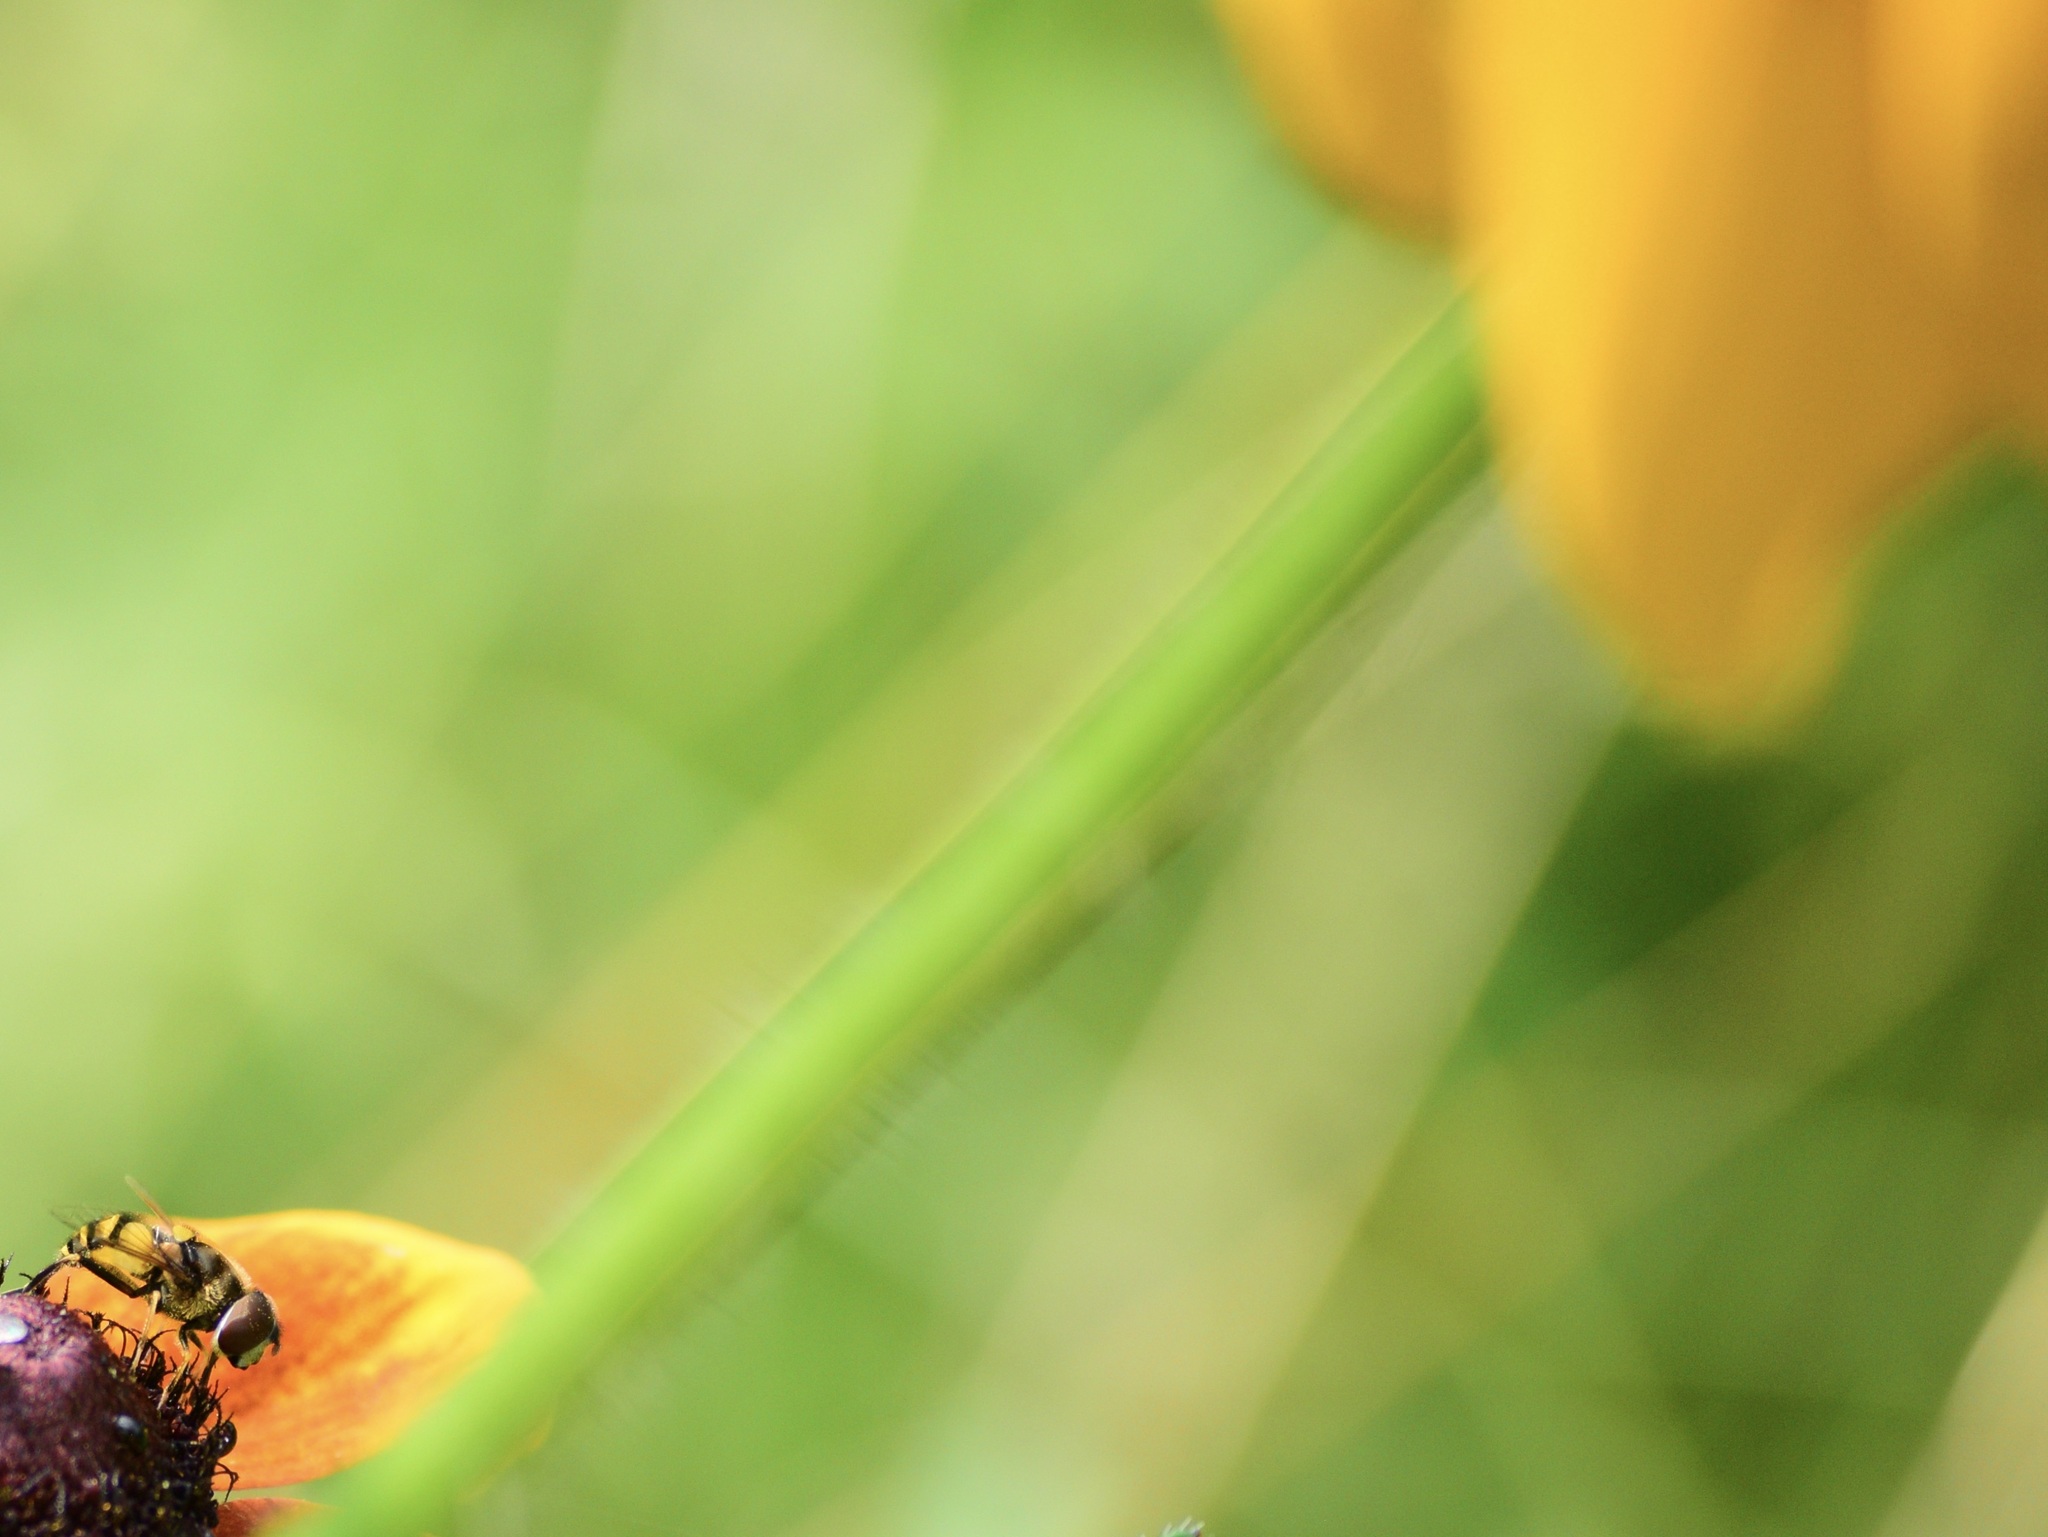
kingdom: Animalia
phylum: Arthropoda
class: Insecta
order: Diptera
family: Syrphidae
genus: Eristalis
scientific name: Eristalis transversa
